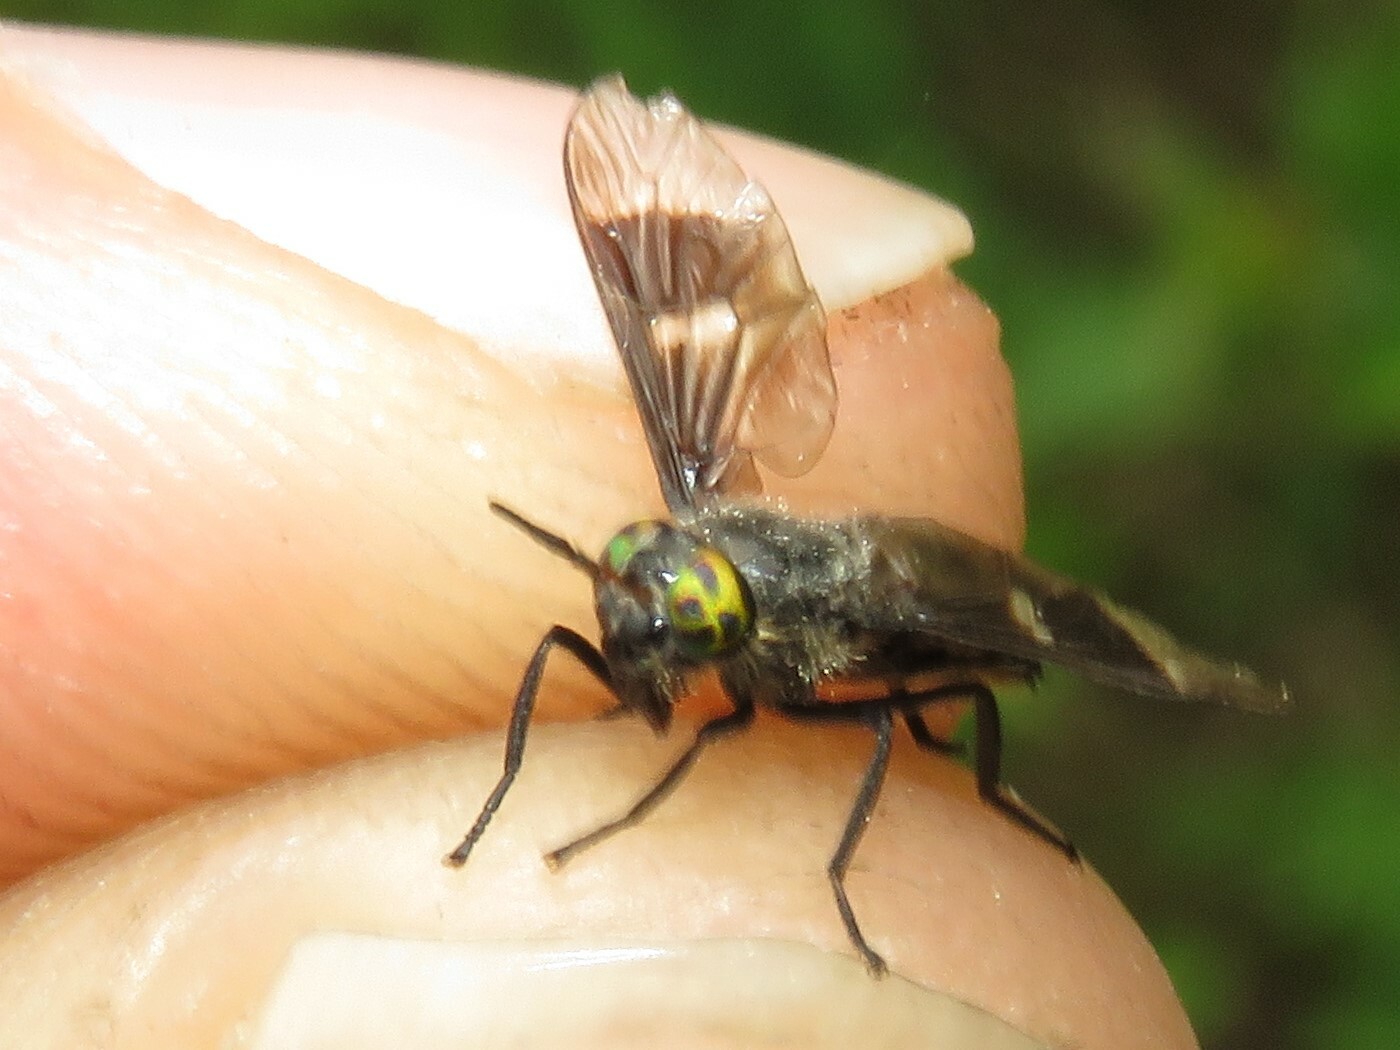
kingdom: Animalia
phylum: Arthropoda
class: Insecta
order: Diptera
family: Tabanidae
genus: Chrysops
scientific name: Chrysops ater
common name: Dark deer fly
